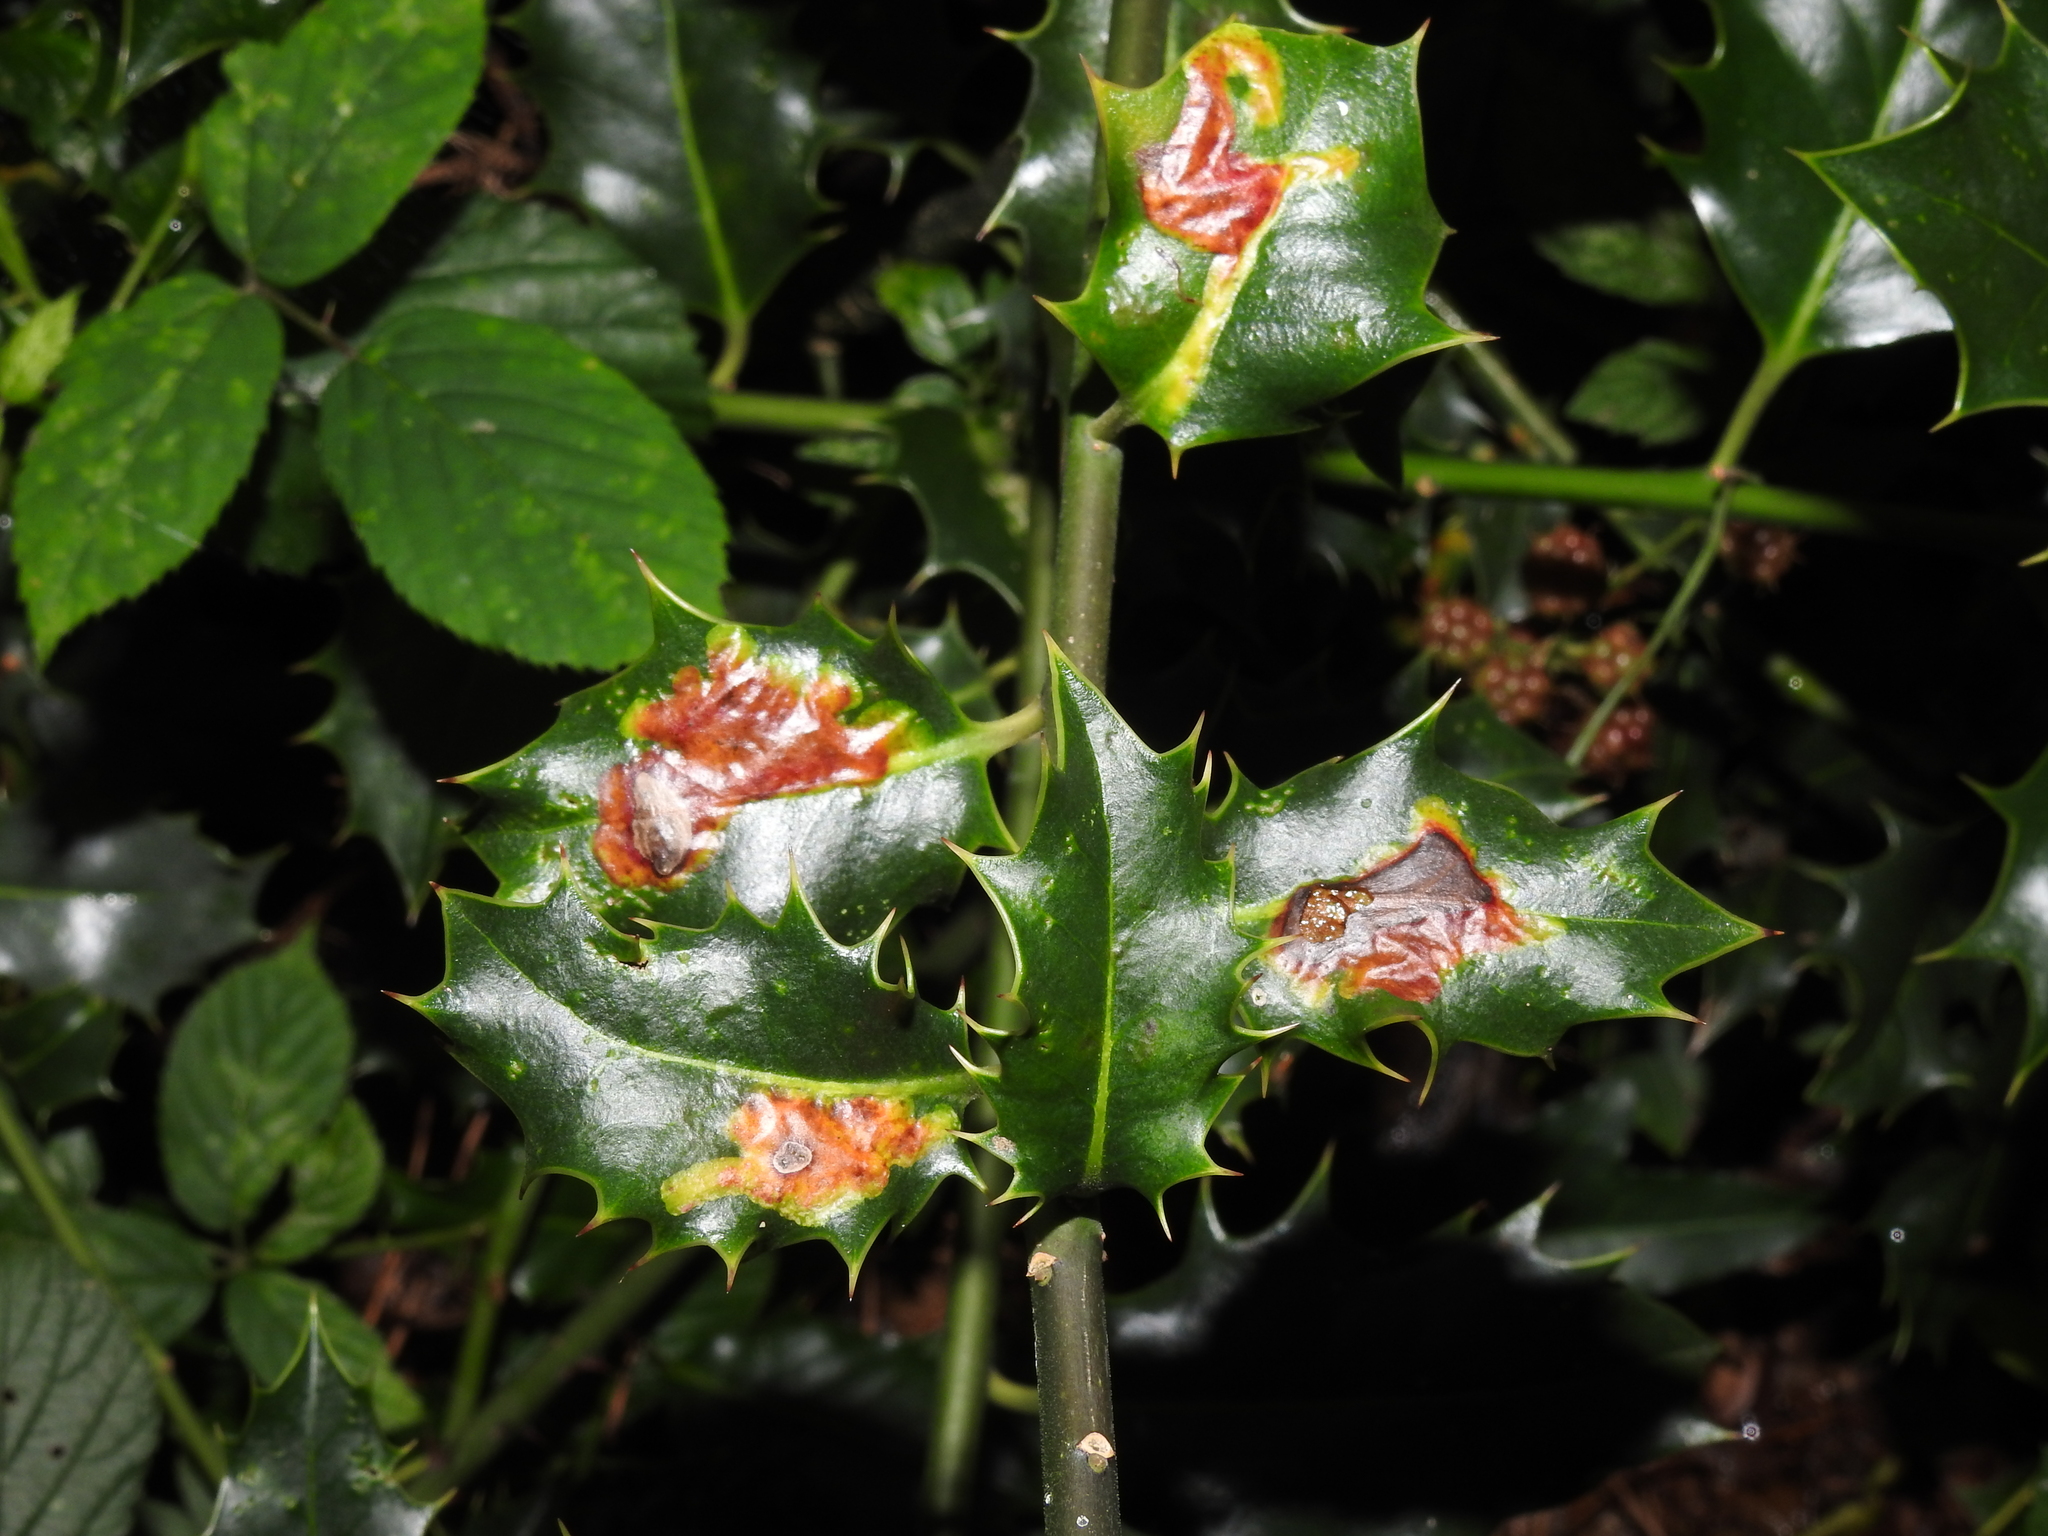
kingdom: Animalia
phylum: Arthropoda
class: Insecta
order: Diptera
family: Agromyzidae
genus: Phytomyza
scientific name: Phytomyza ilicis
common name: Holly leafminer
